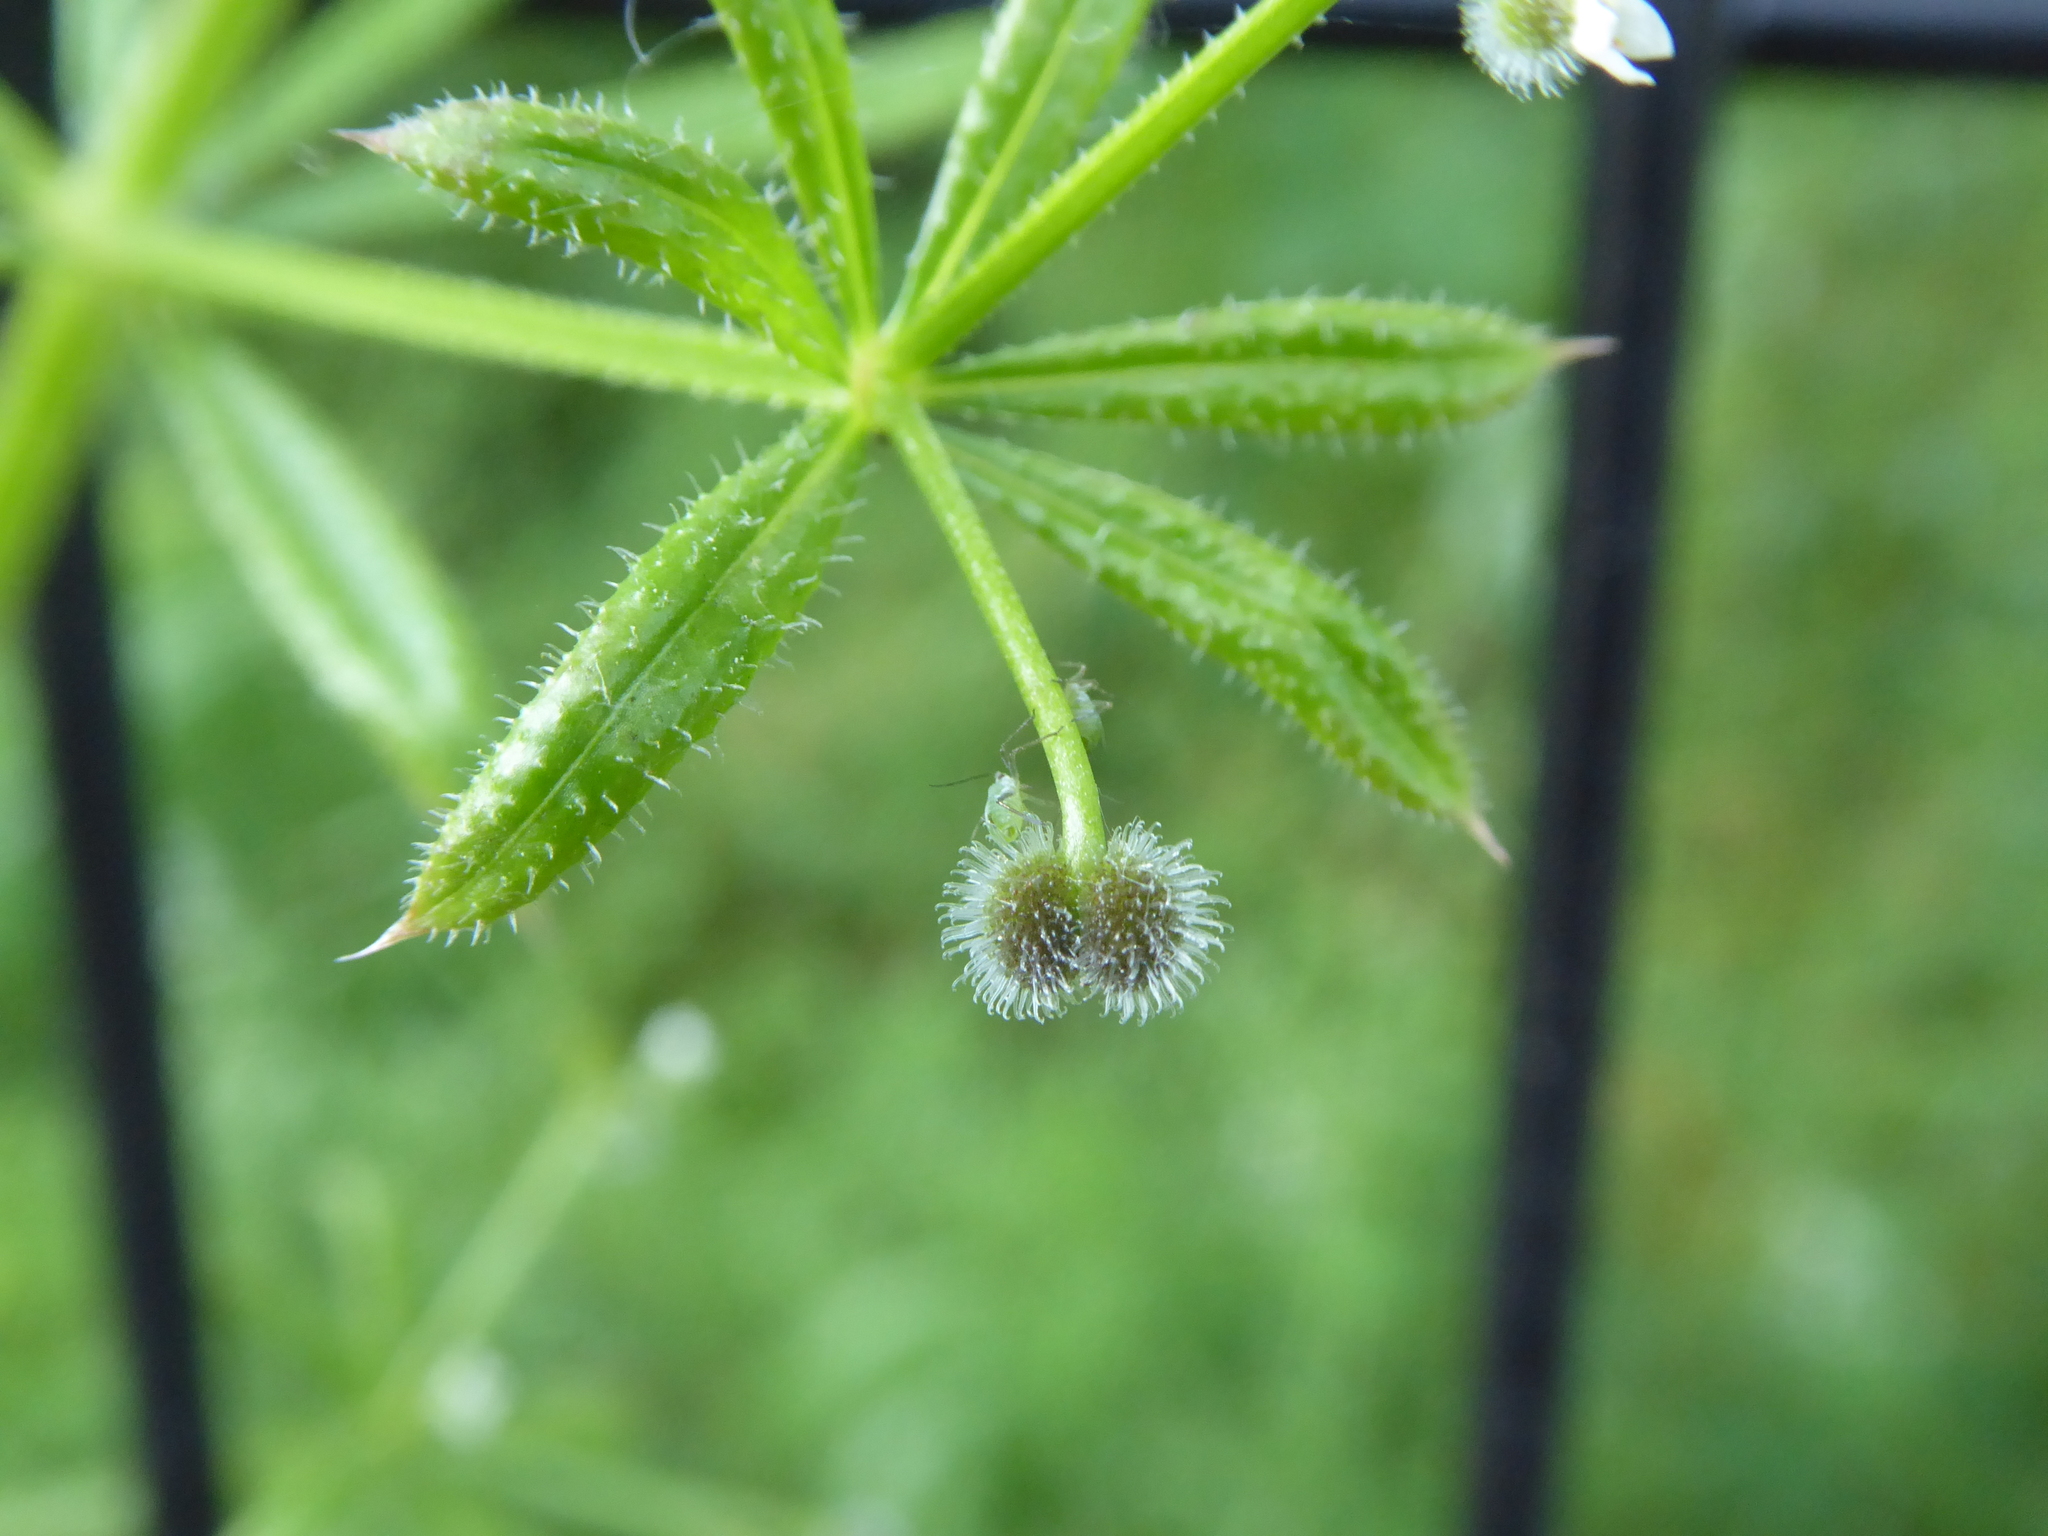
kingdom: Plantae
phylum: Tracheophyta
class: Magnoliopsida
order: Gentianales
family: Rubiaceae
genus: Galium
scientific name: Galium aparine
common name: Cleavers
